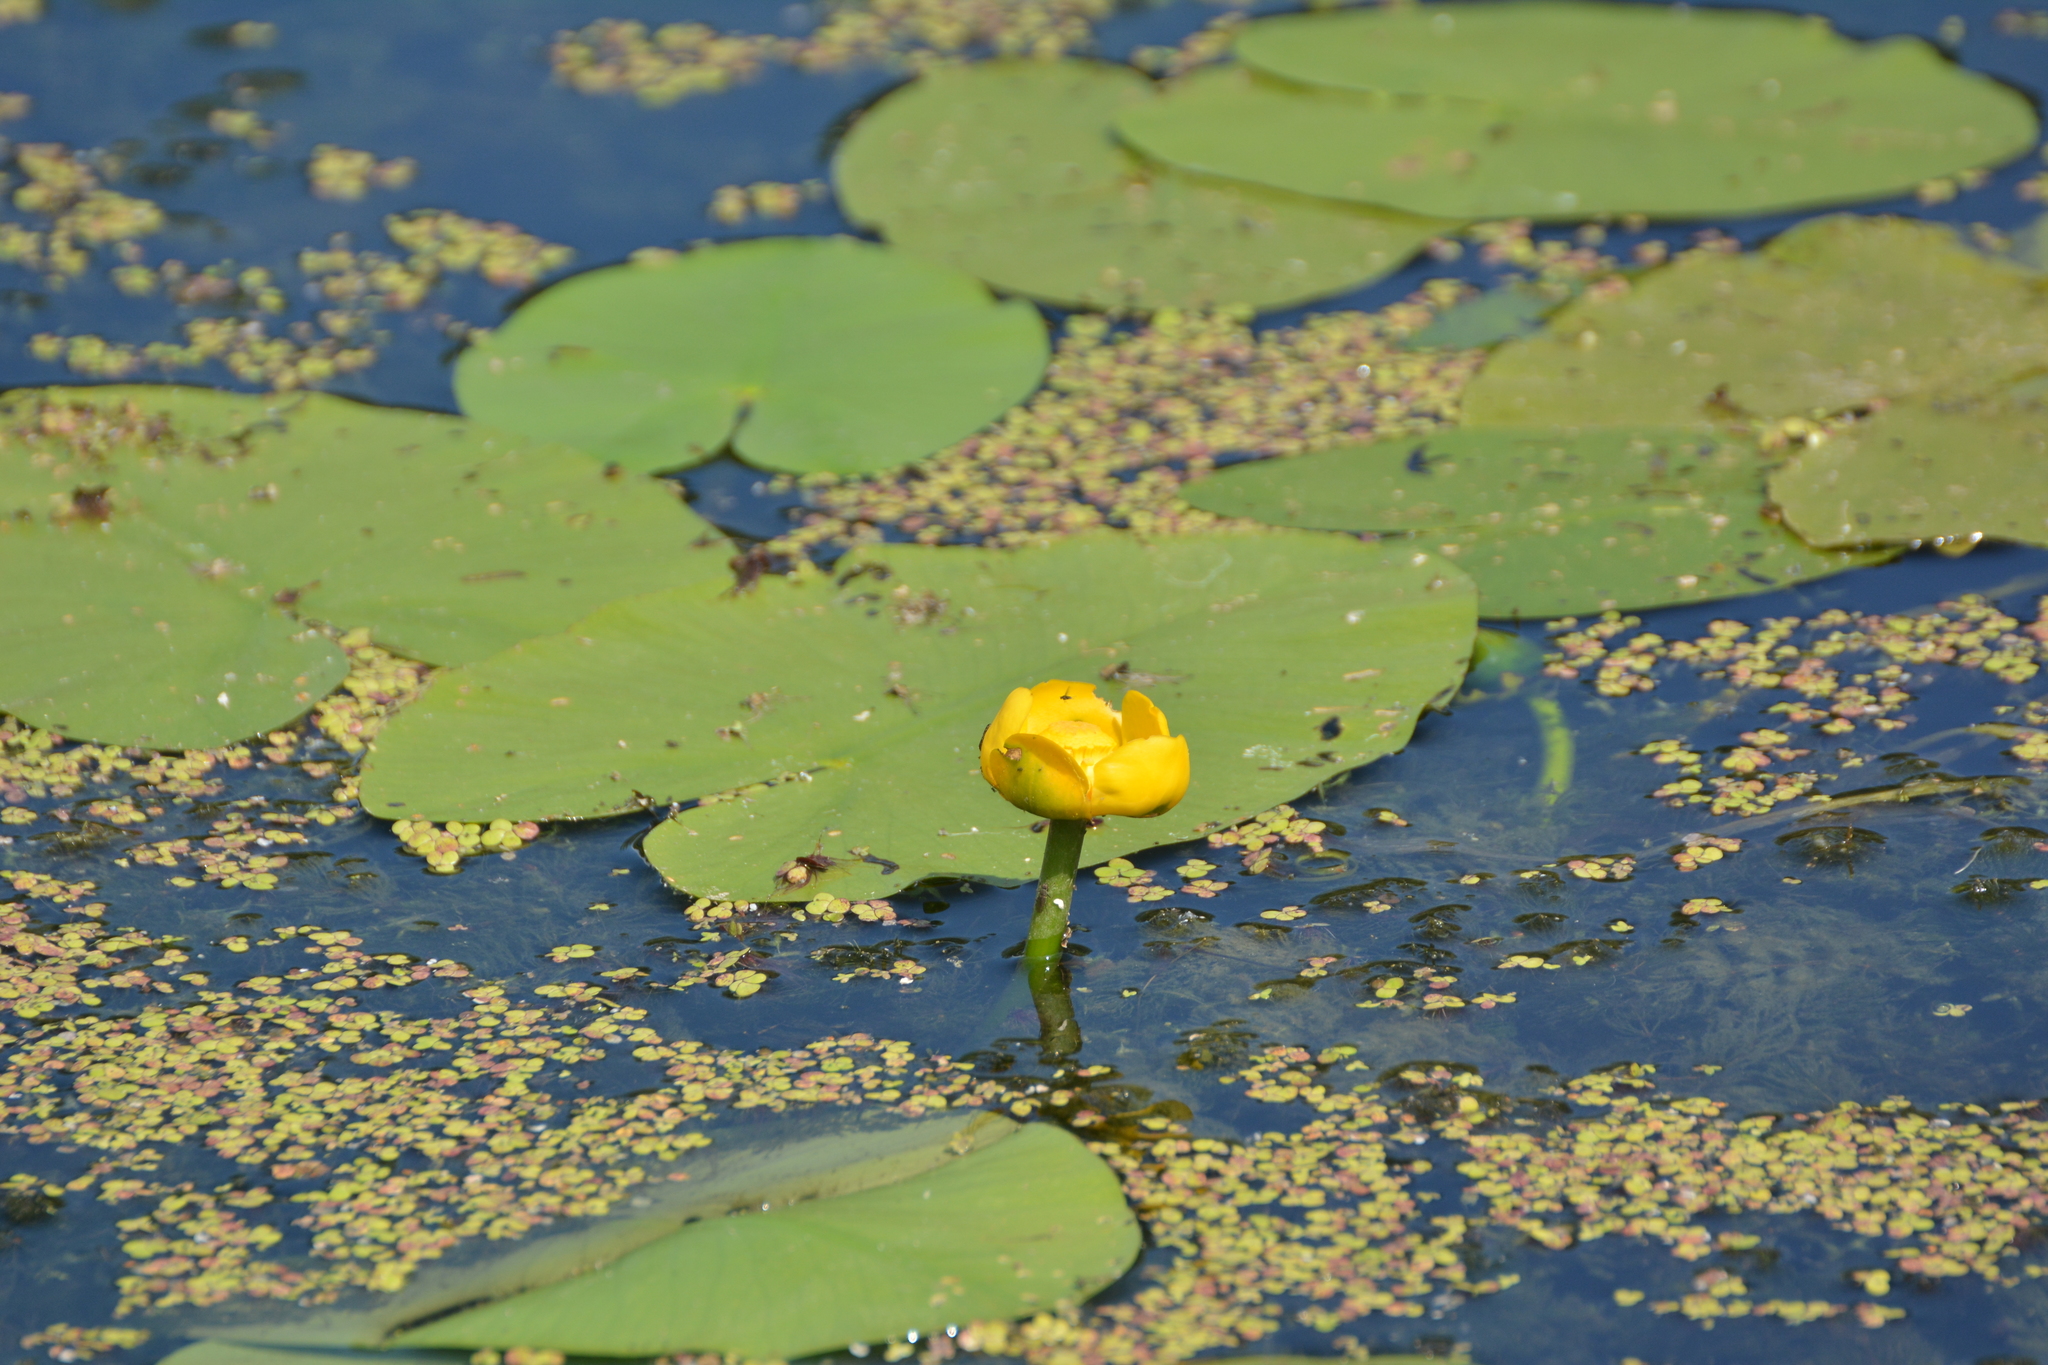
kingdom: Plantae
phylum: Tracheophyta
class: Magnoliopsida
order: Nymphaeales
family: Nymphaeaceae
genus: Nuphar
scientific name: Nuphar lutea
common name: Yellow water-lily
